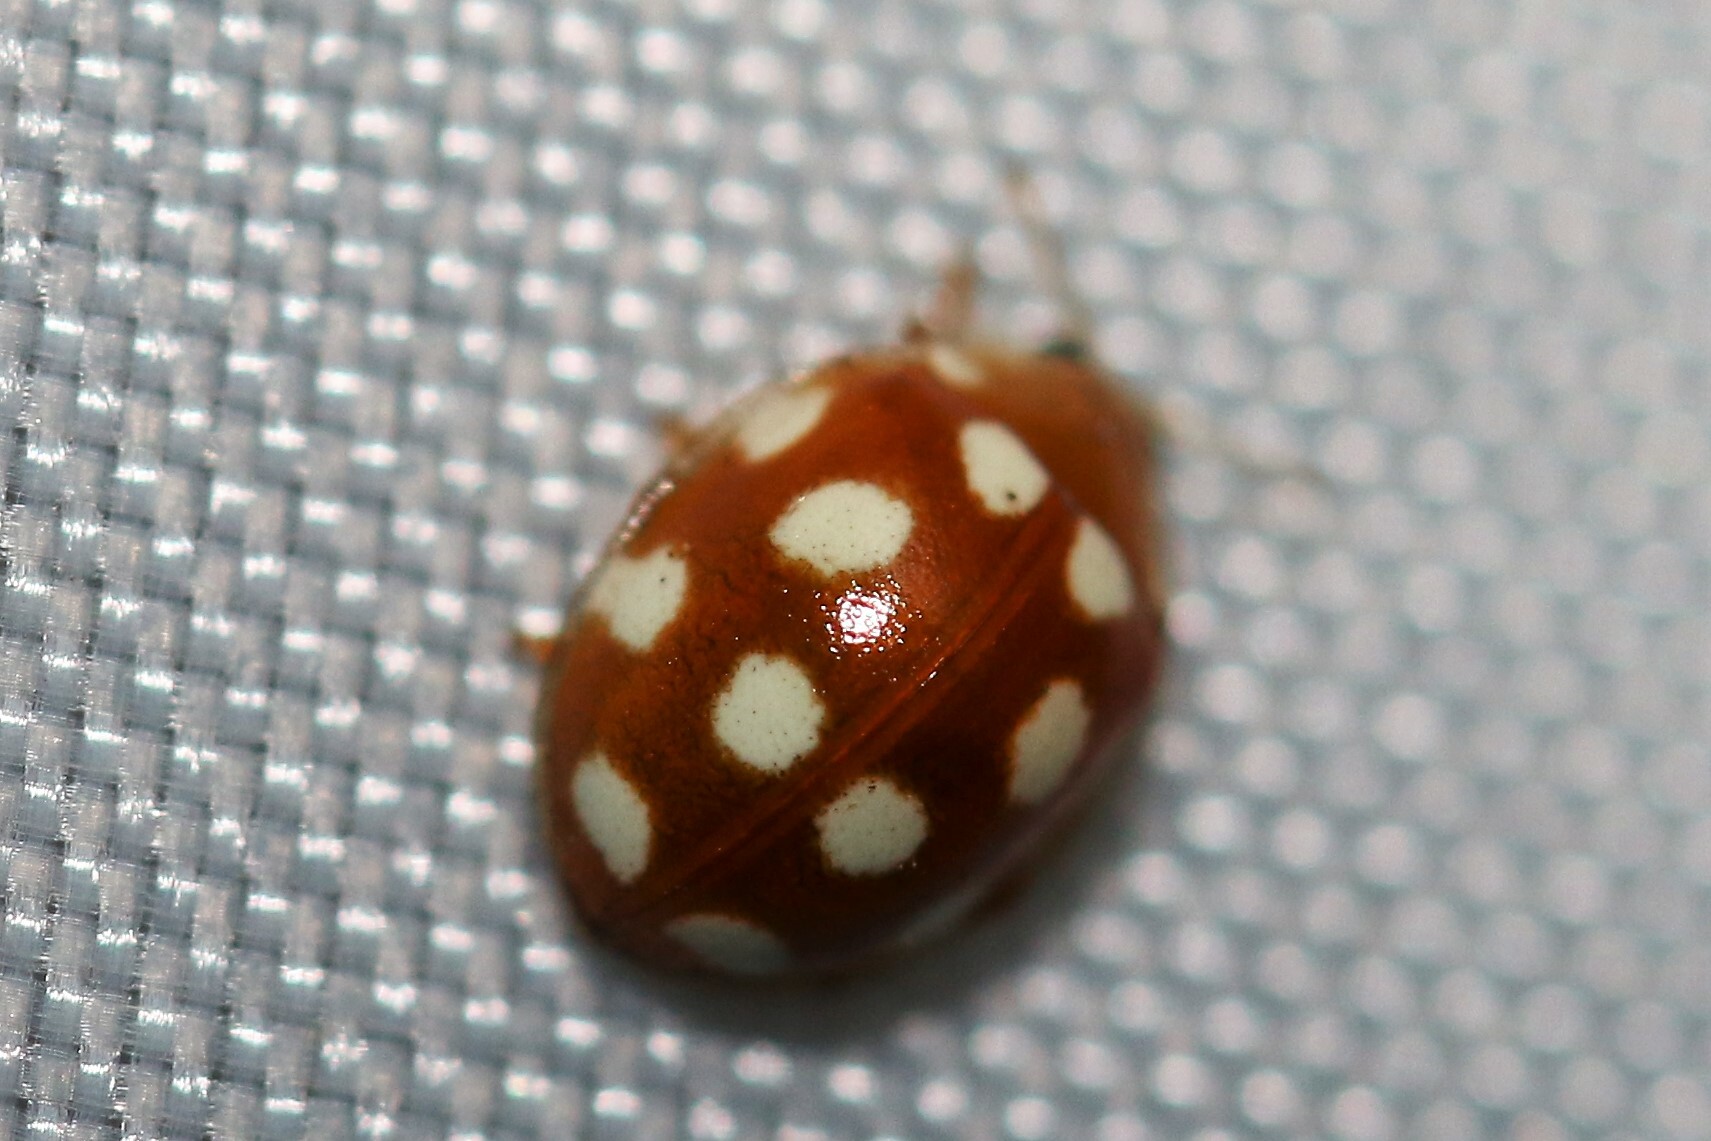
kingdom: Animalia
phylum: Arthropoda
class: Insecta
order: Coleoptera
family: Coccinellidae
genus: Vibidia
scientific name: Vibidia duodecimguttata
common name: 12-spot ladybird
